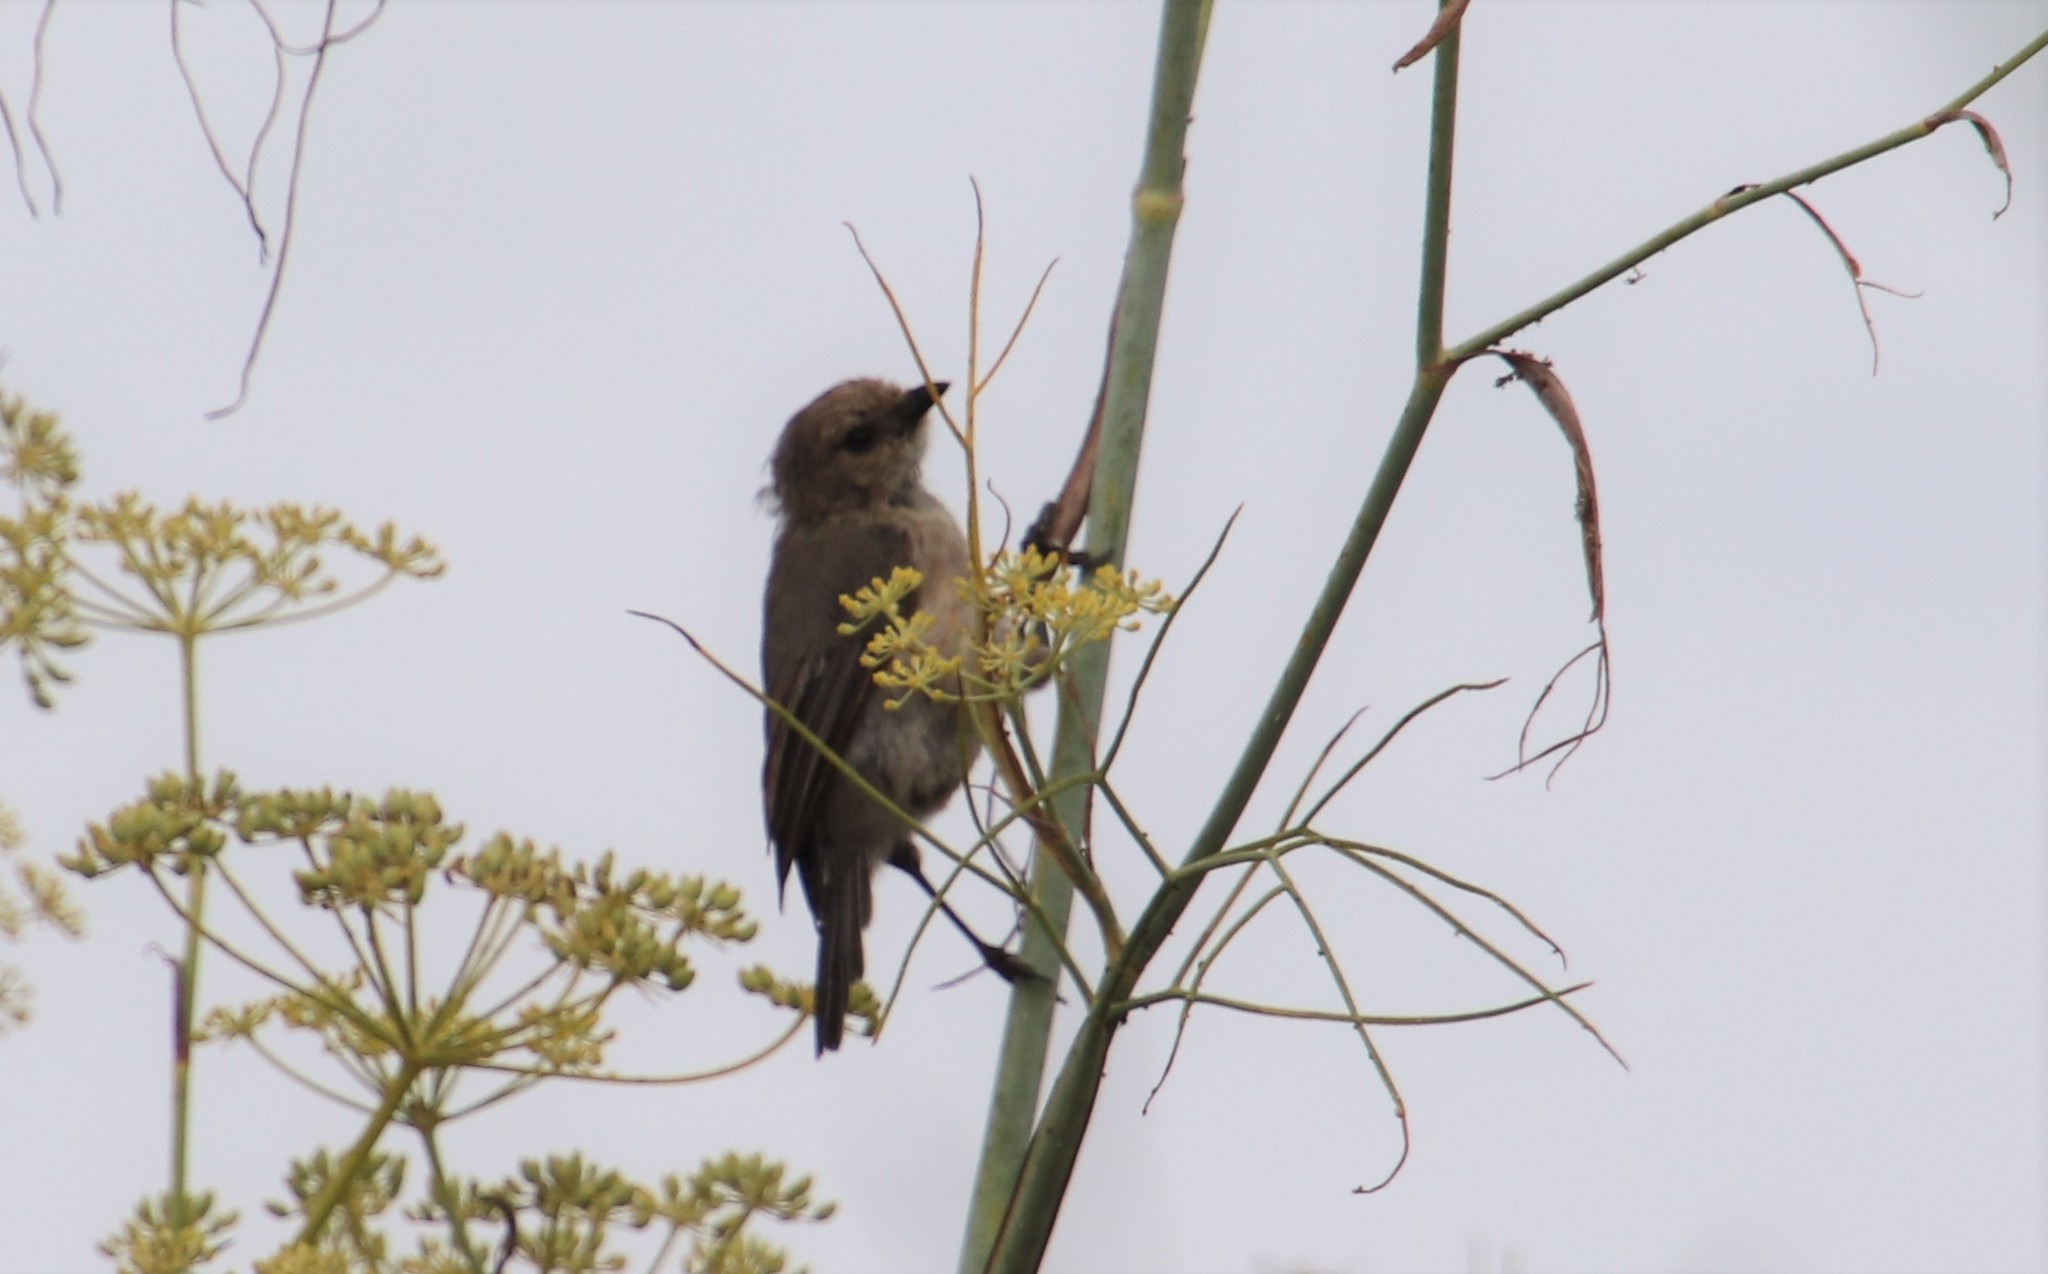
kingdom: Animalia
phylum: Chordata
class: Aves
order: Passeriformes
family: Aegithalidae
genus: Psaltriparus
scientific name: Psaltriparus minimus
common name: American bushtit
